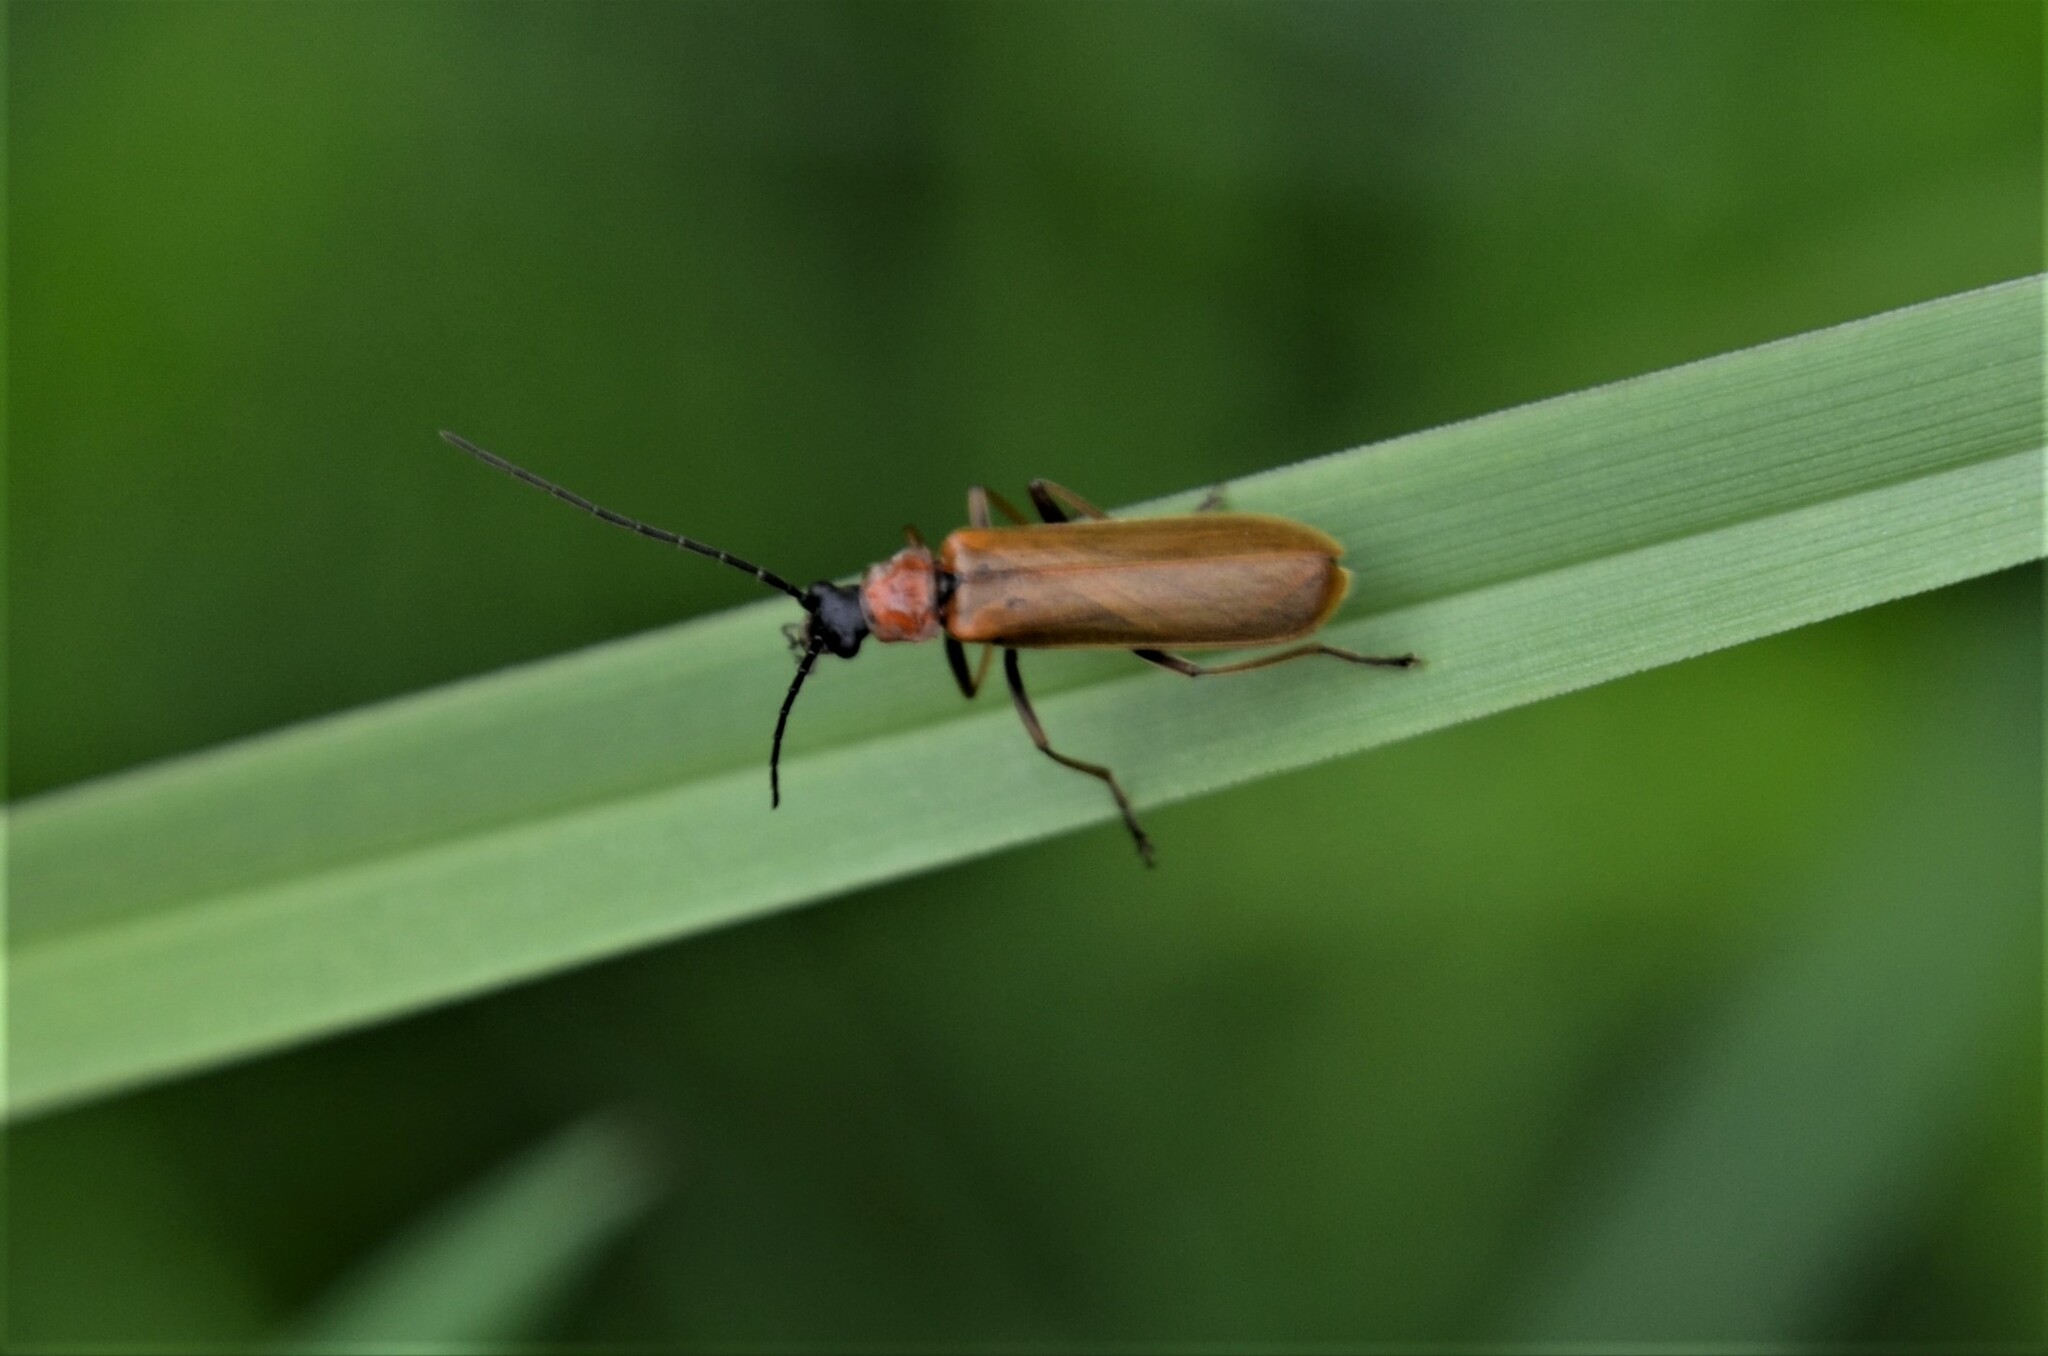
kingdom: Animalia
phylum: Arthropoda
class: Insecta
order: Coleoptera
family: Cantharidae
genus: Rhagonycha
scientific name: Rhagonycha nigriceps
